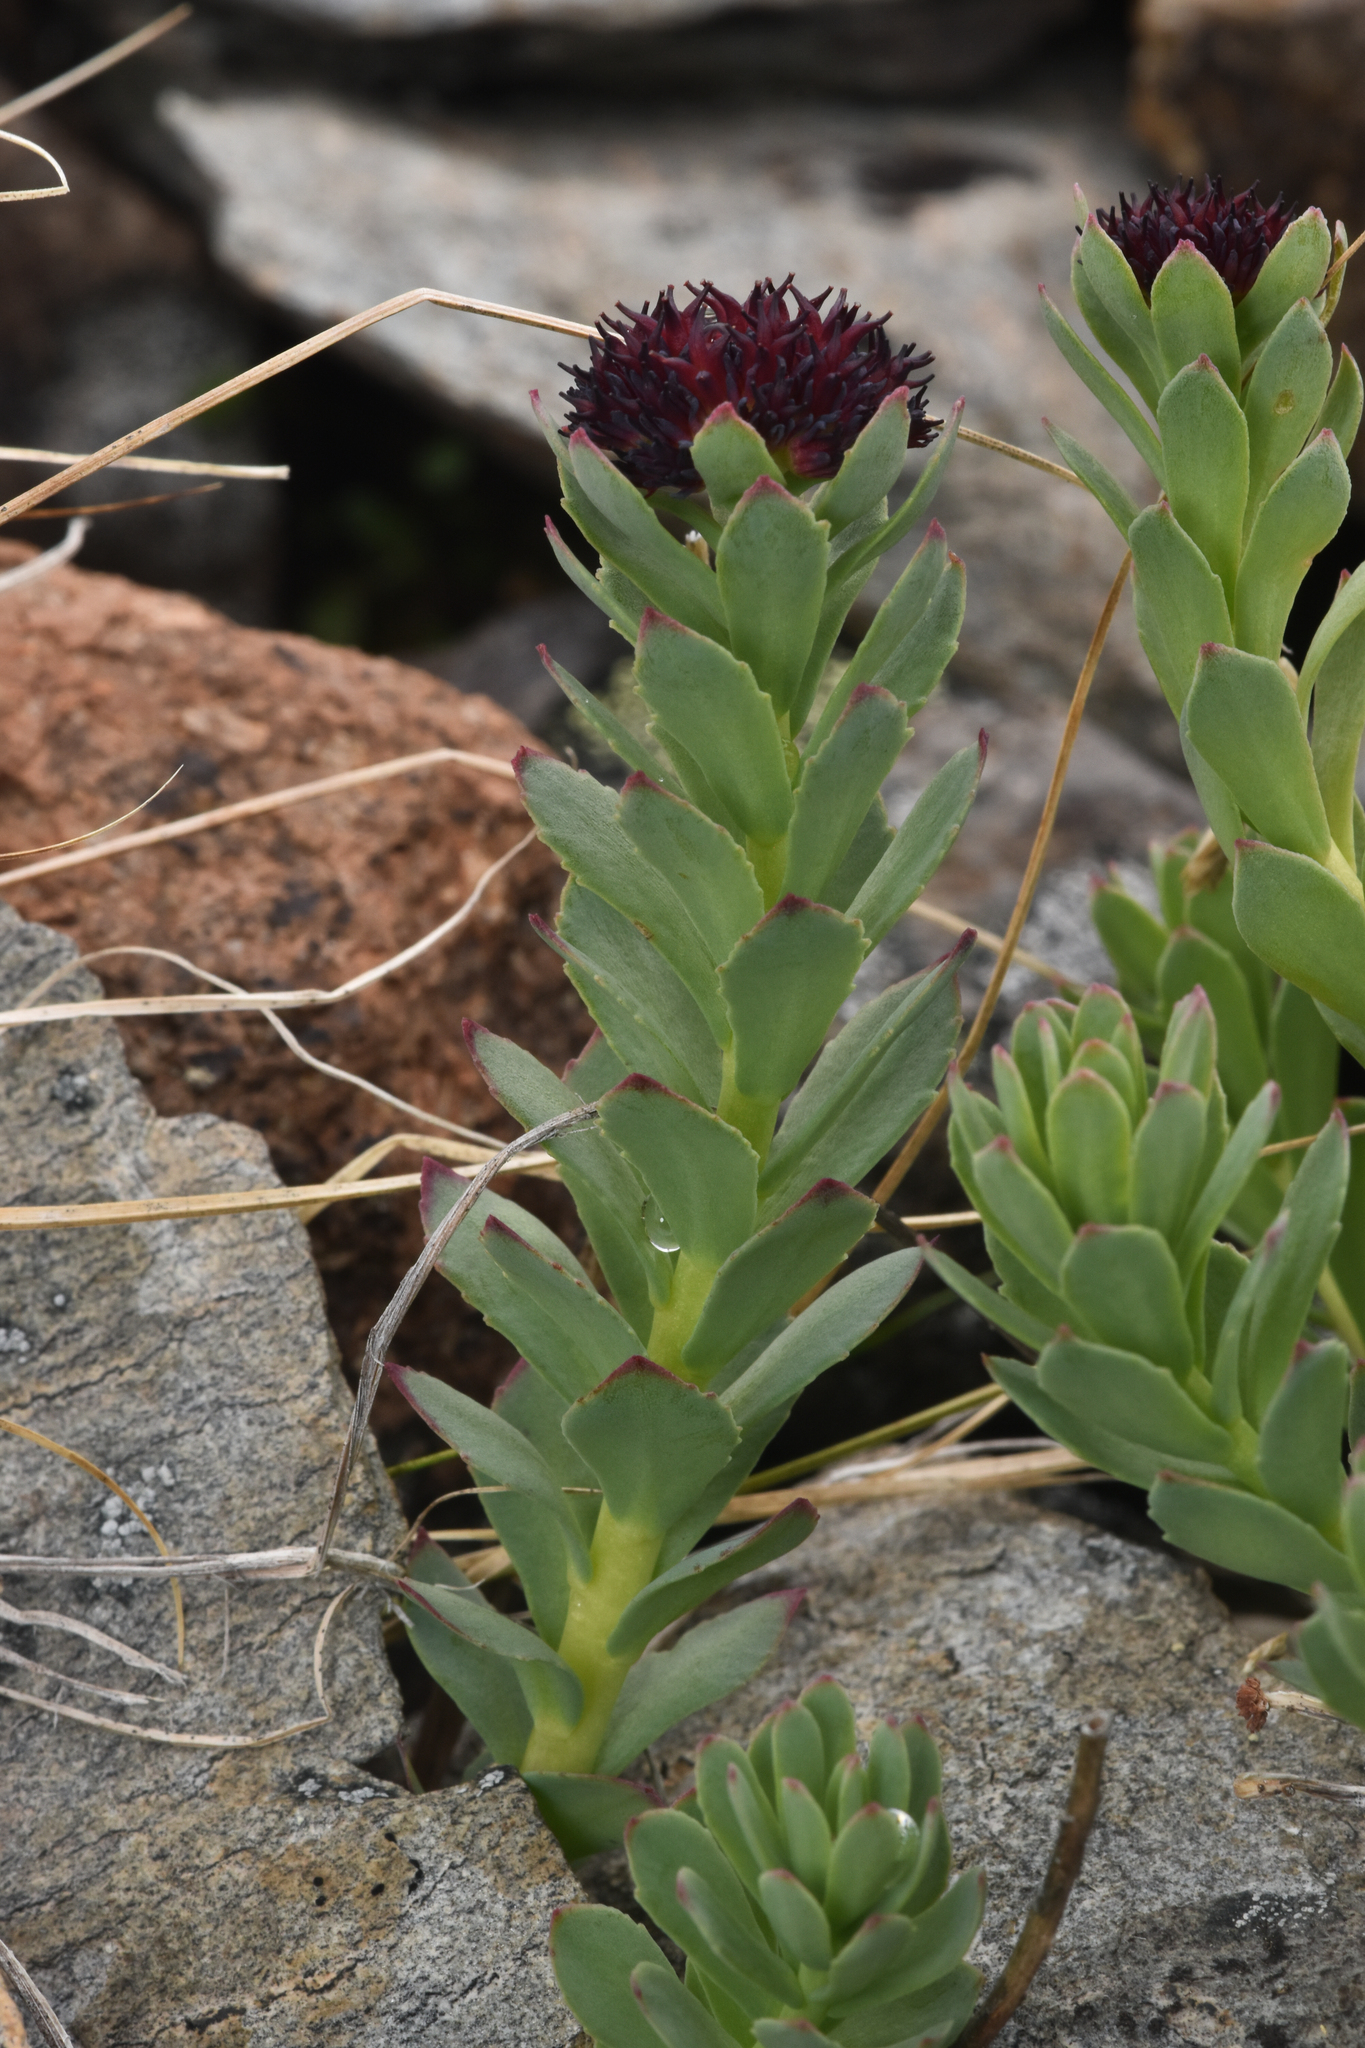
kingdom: Plantae
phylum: Tracheophyta
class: Magnoliopsida
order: Saxifragales
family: Crassulaceae
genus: Rhodiola
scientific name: Rhodiola integrifolia
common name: Western roseroot
